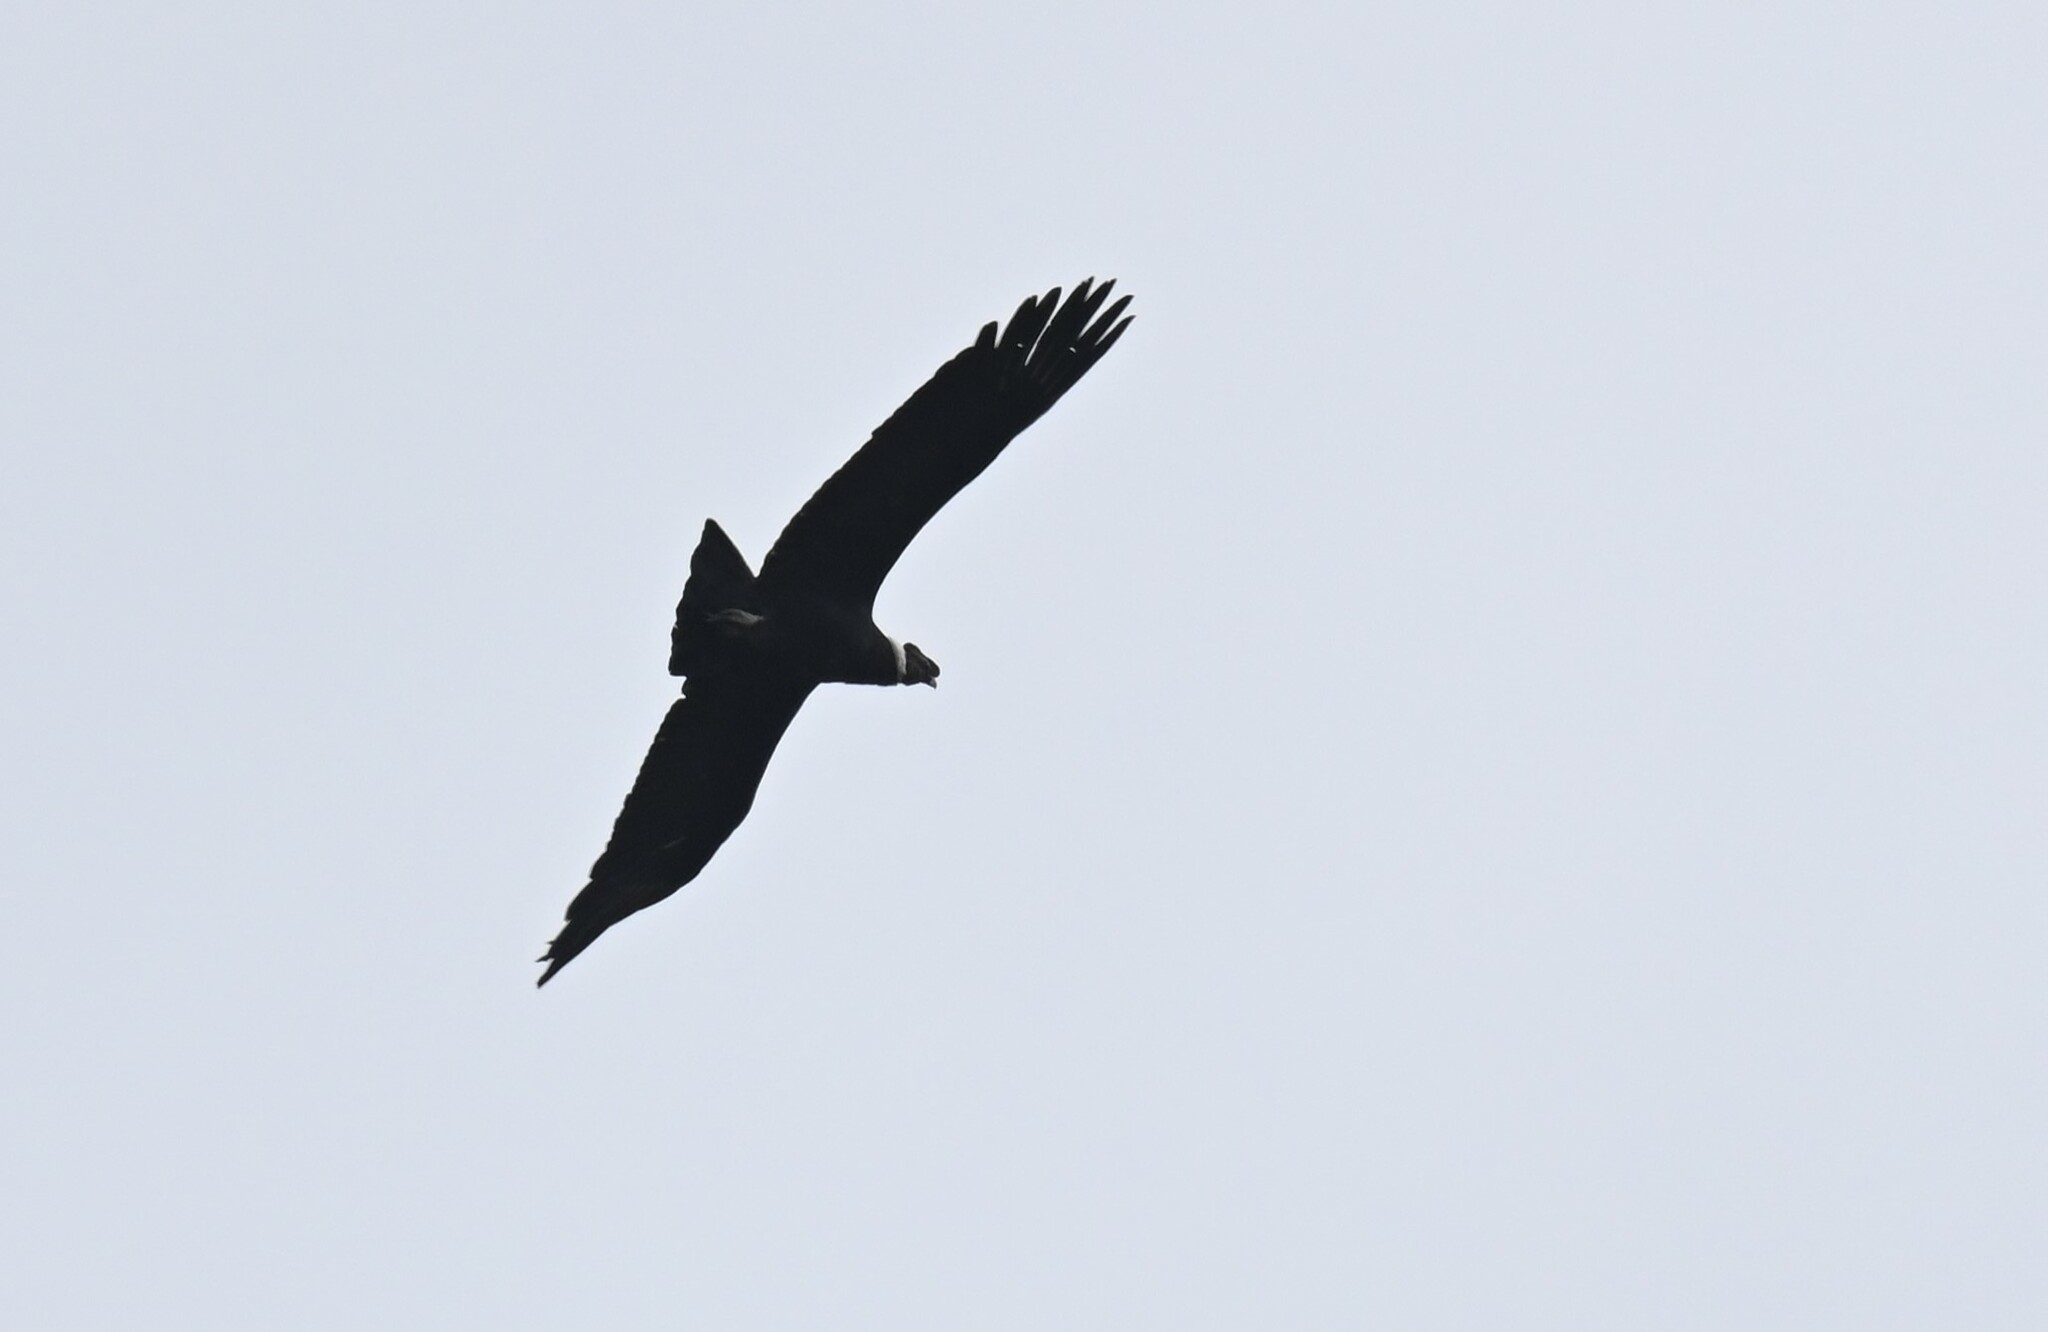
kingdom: Animalia
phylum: Chordata
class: Aves
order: Accipitriformes
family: Cathartidae
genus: Vultur
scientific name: Vultur gryphus
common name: Andean condor
